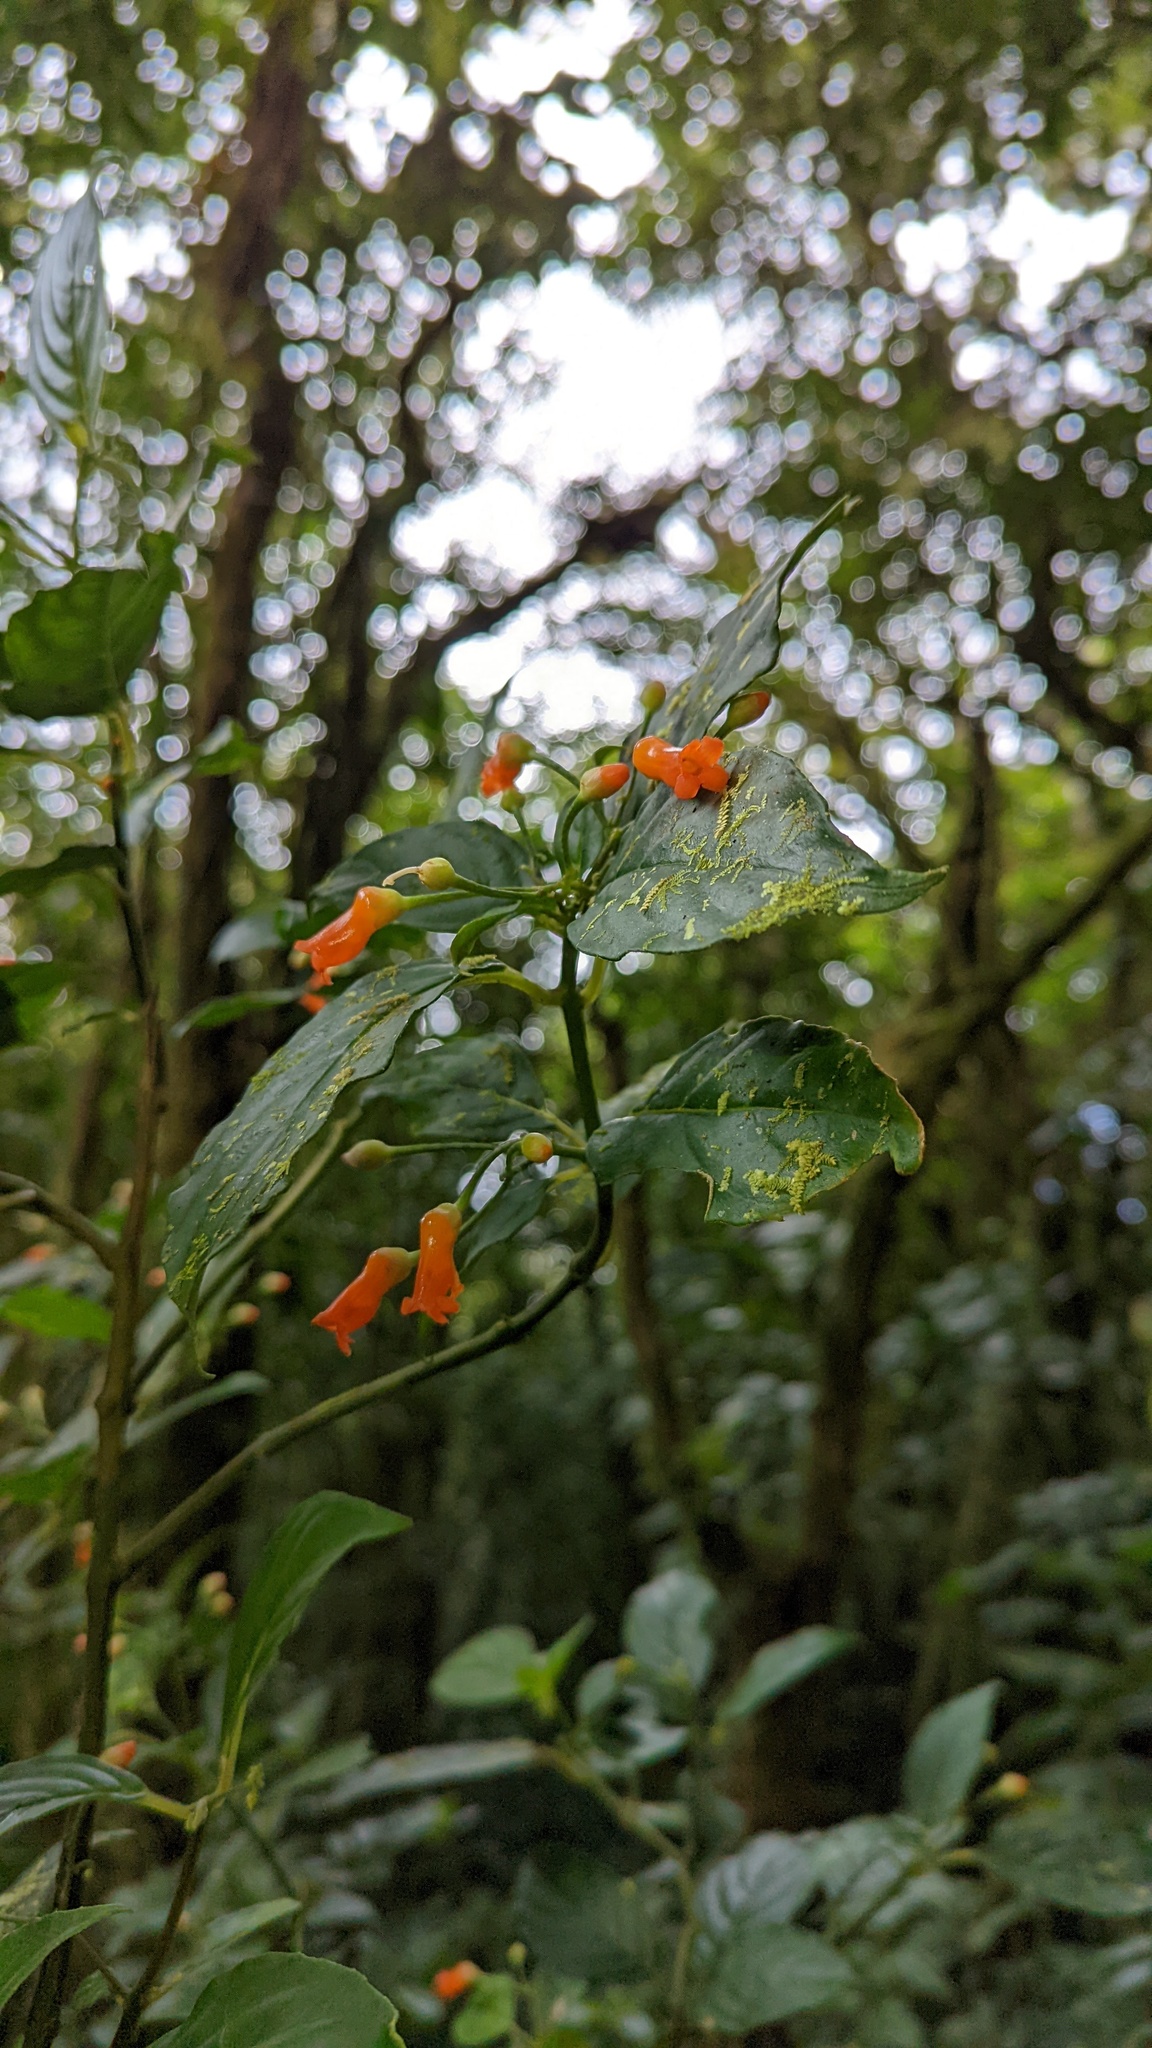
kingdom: Plantae
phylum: Tracheophyta
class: Magnoliopsida
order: Lamiales
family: Gesneriaceae
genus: Besleria
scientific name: Besleria triflora
